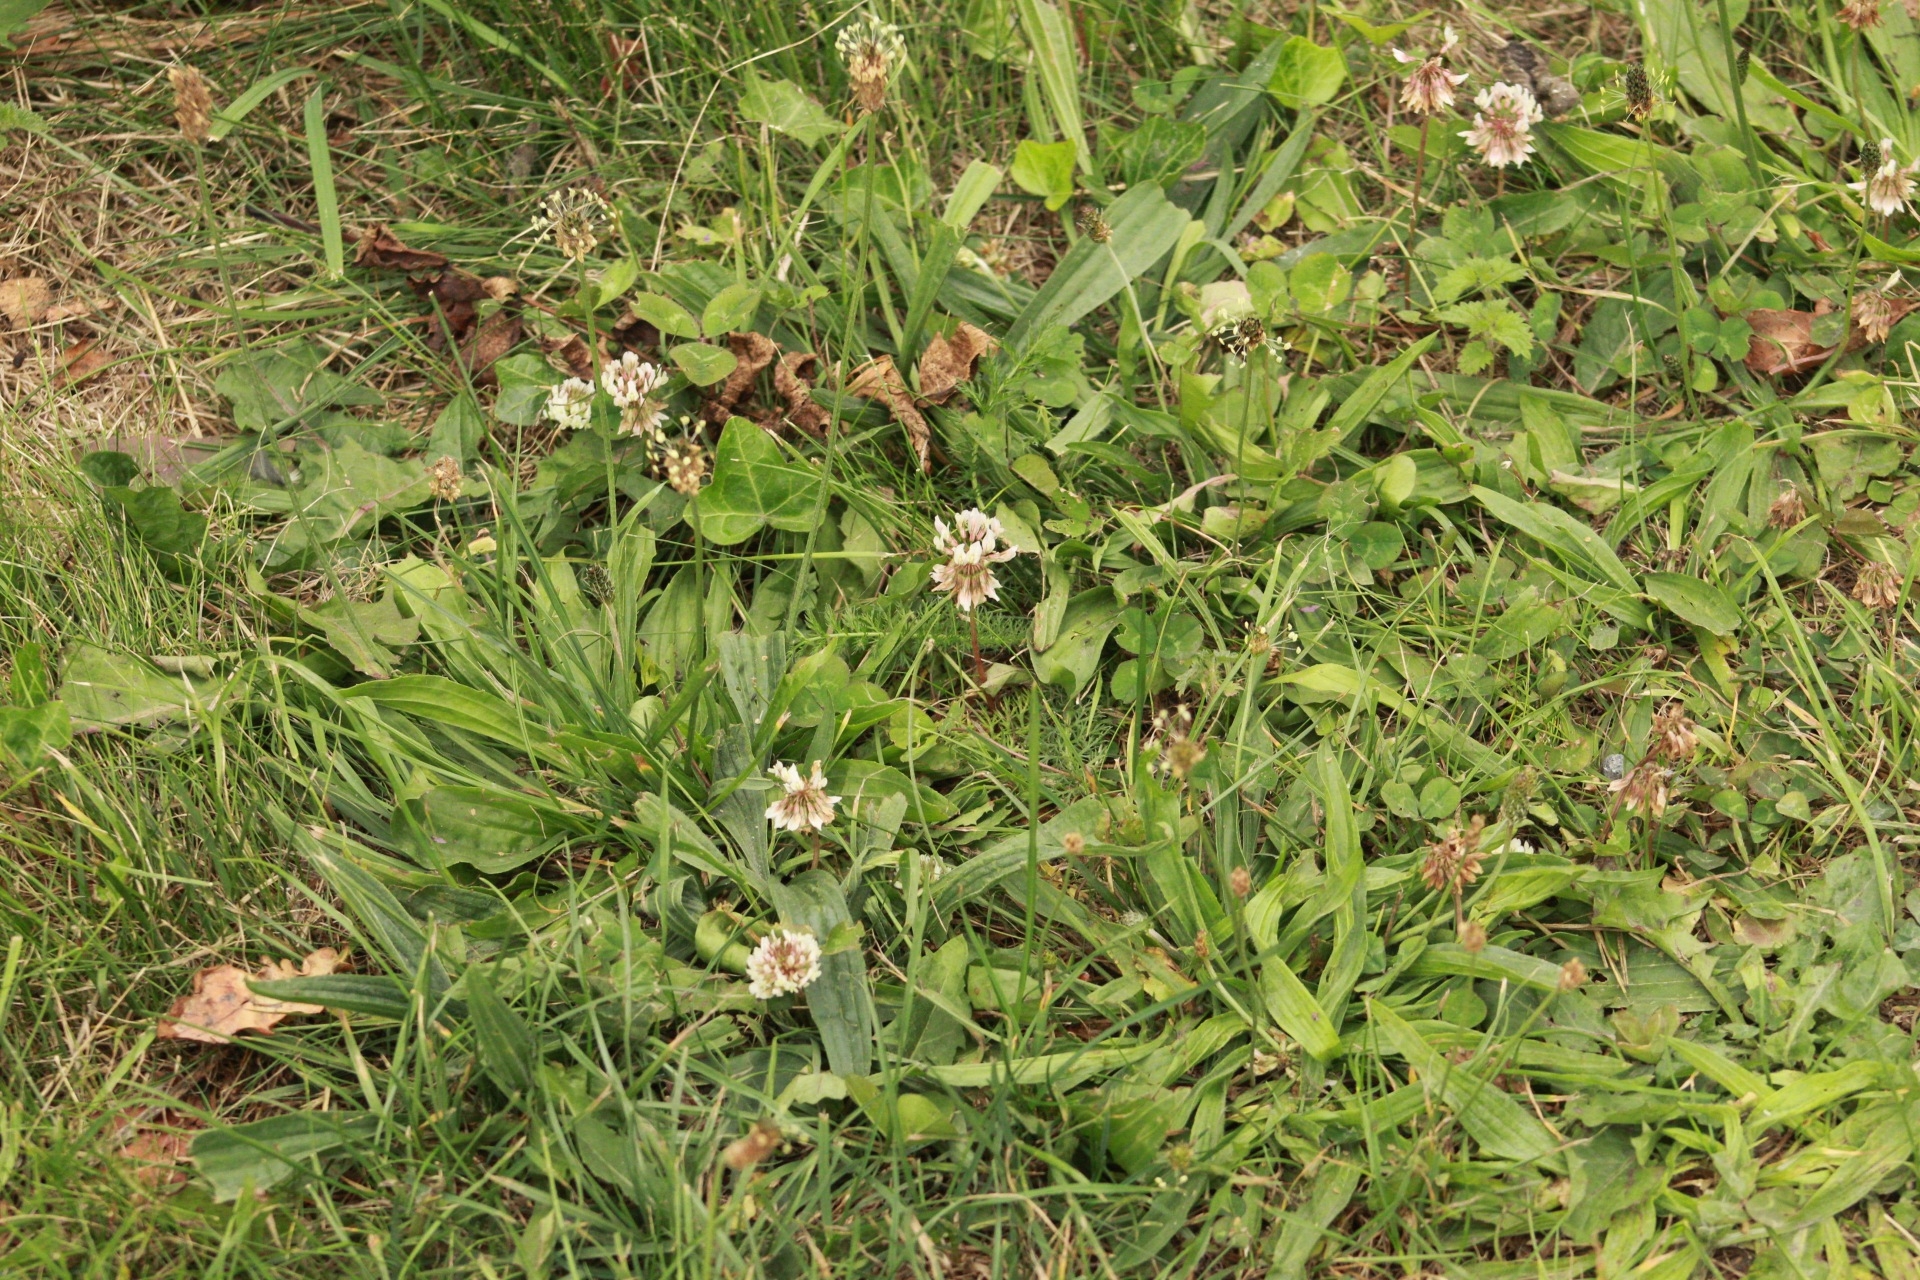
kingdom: Plantae
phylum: Tracheophyta
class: Magnoliopsida
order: Fabales
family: Fabaceae
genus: Trifolium
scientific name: Trifolium repens
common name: White clover
